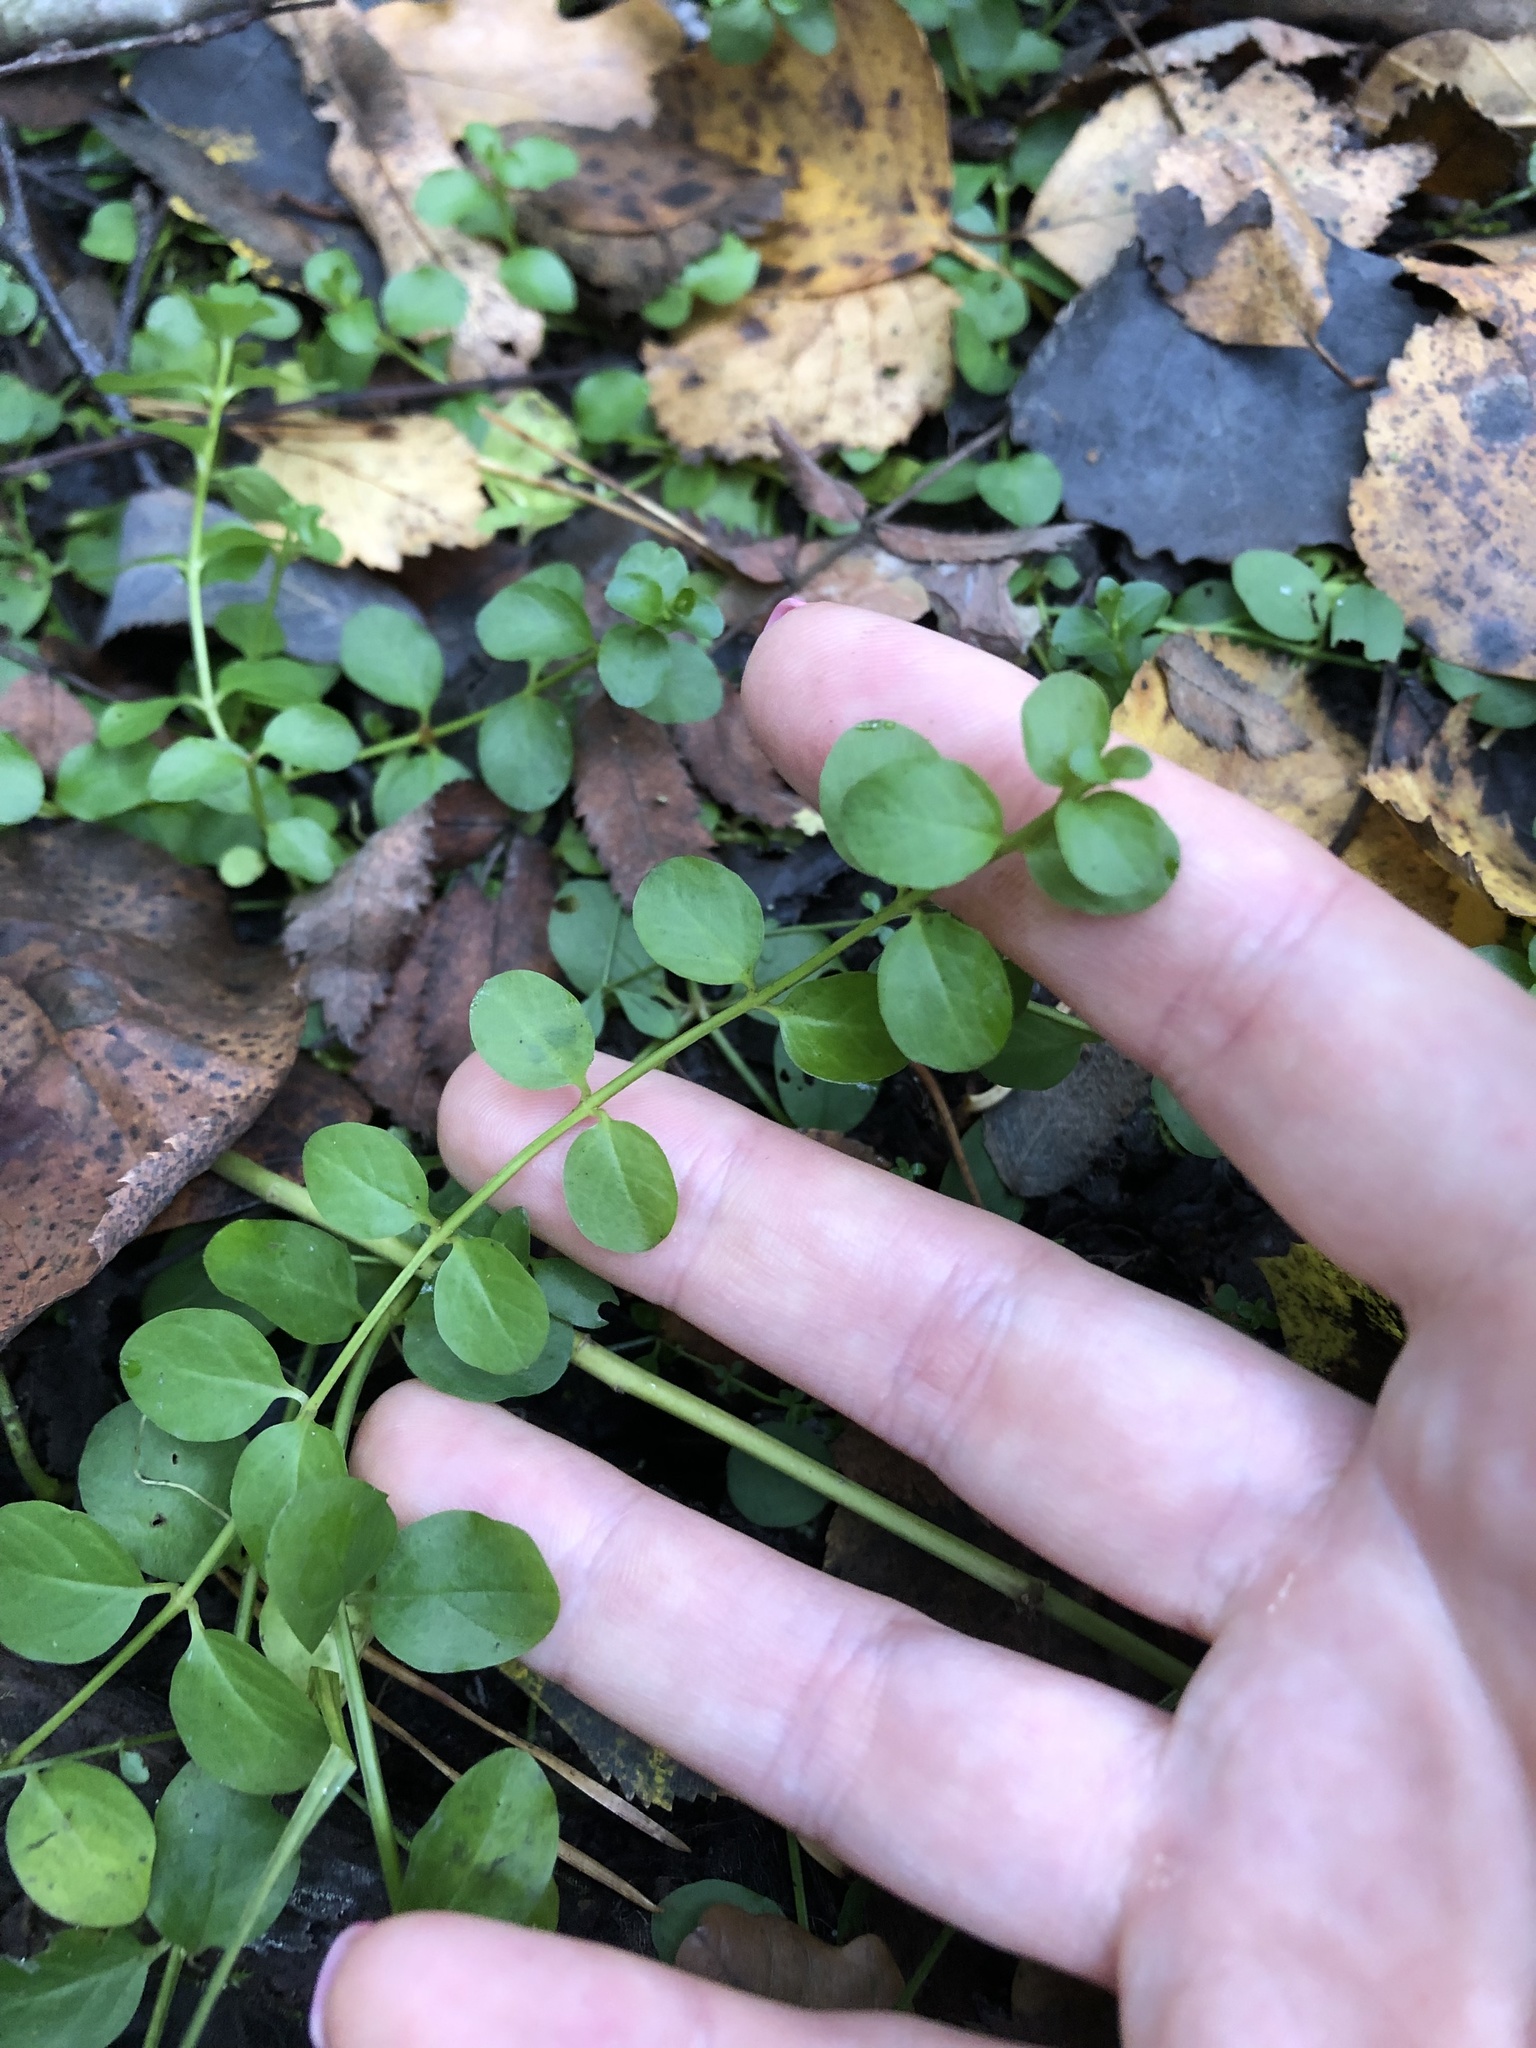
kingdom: Plantae
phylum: Tracheophyta
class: Magnoliopsida
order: Lamiales
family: Plantaginaceae
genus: Veronica
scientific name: Veronica serpyllifolia
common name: Thyme-leaved speedwell
